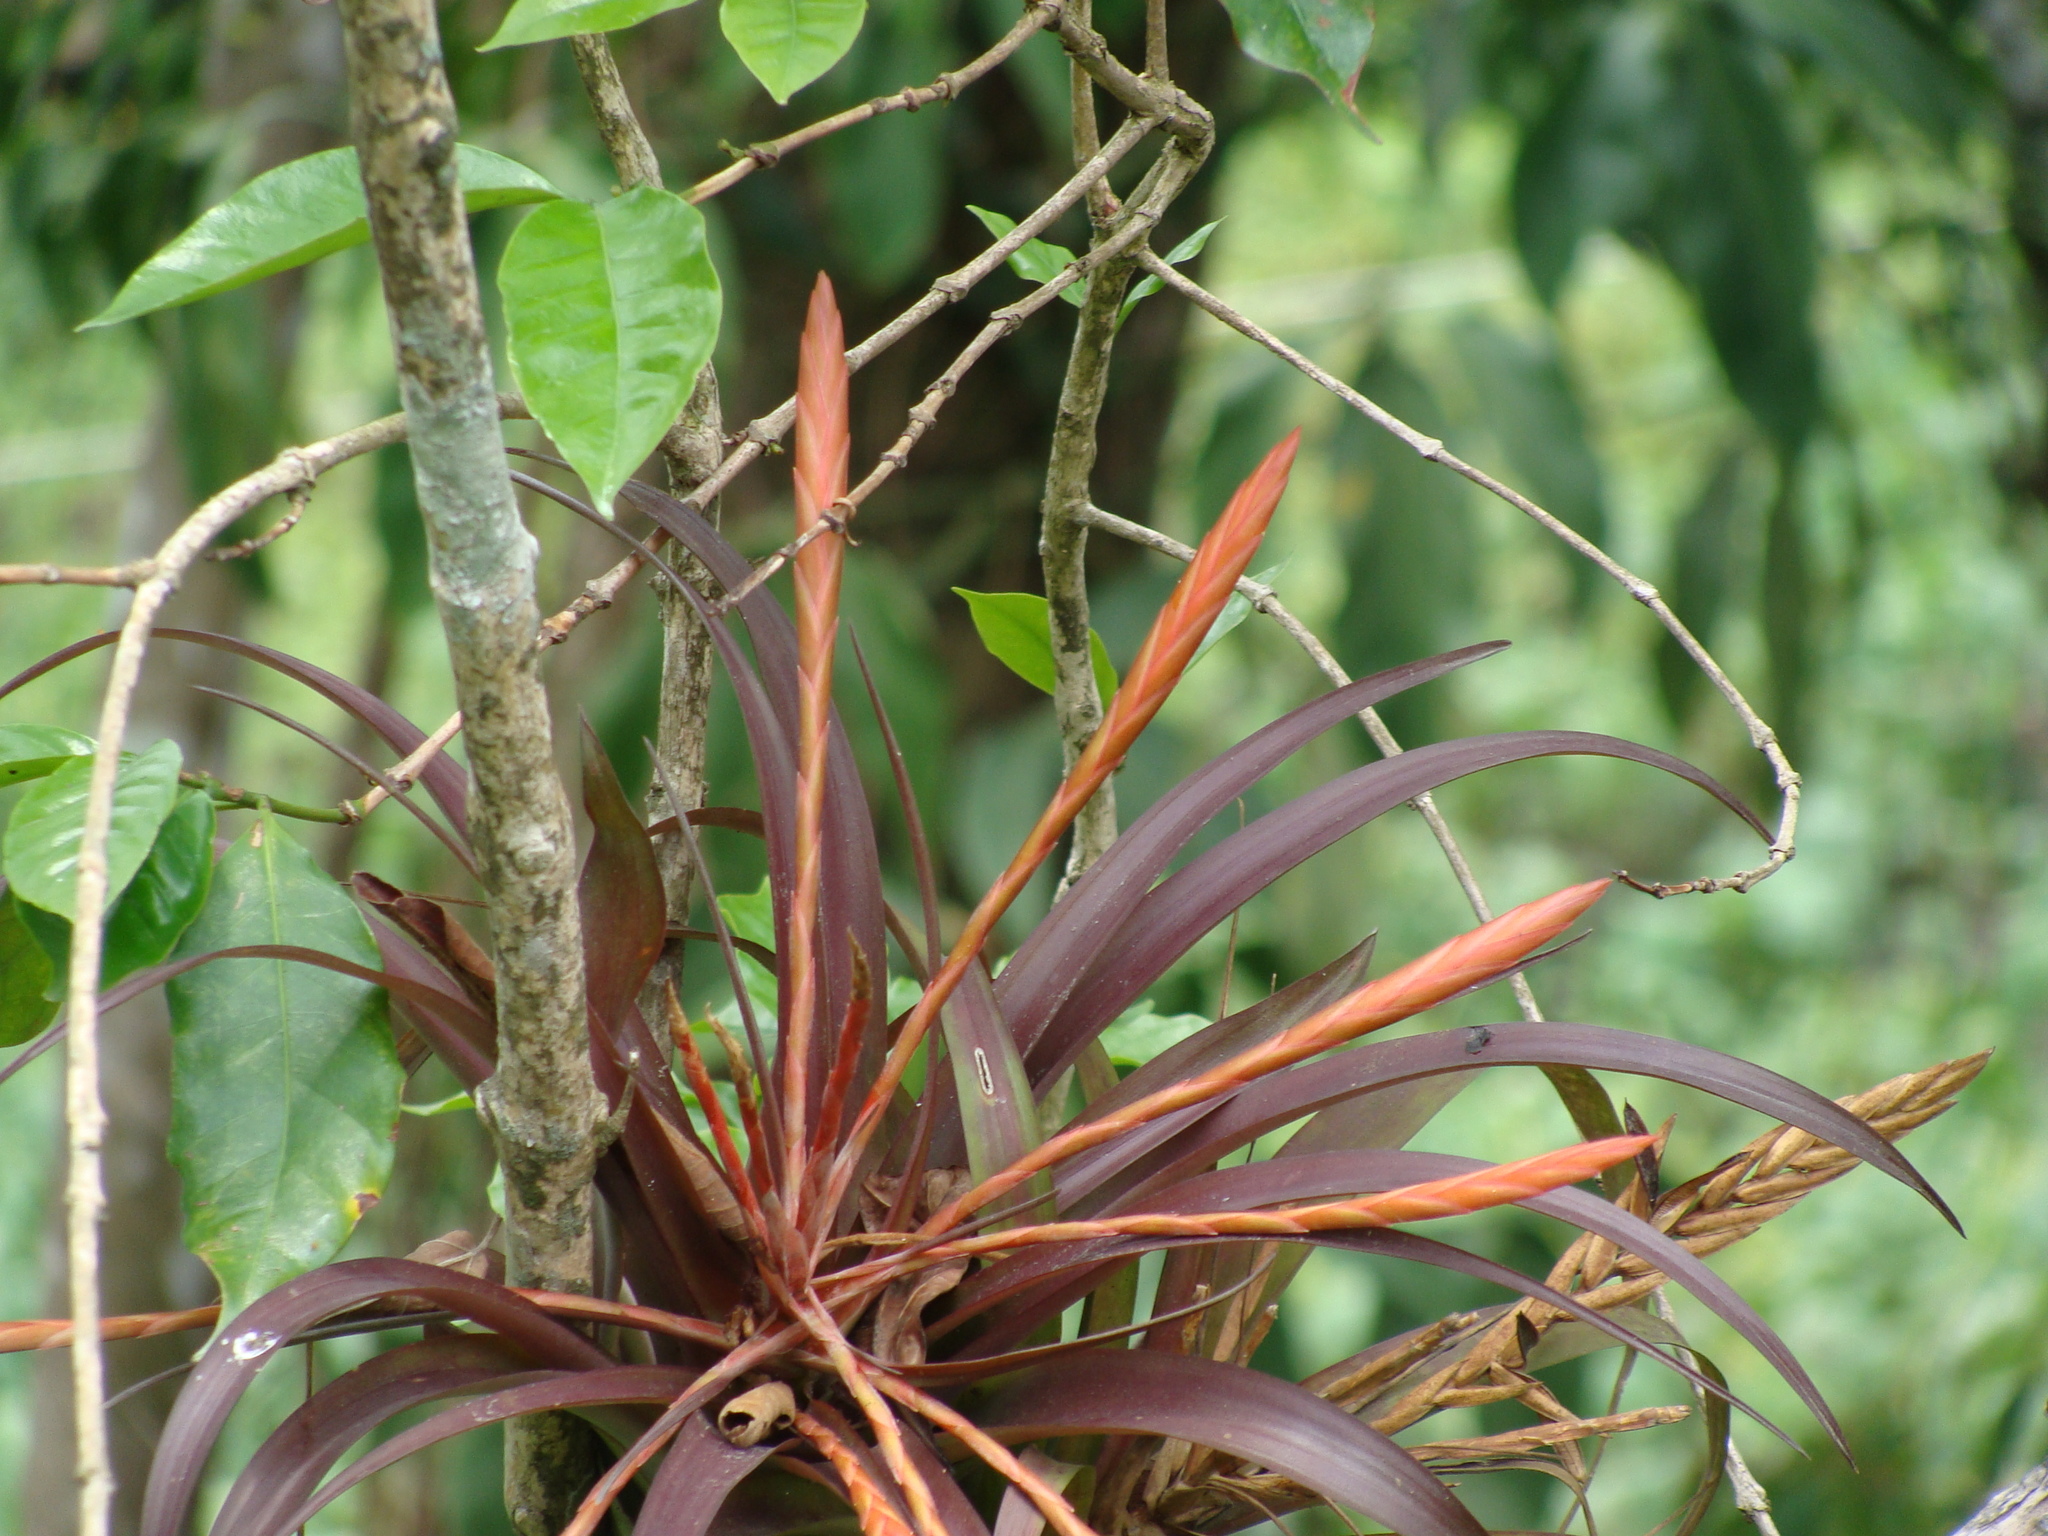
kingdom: Plantae
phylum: Tracheophyta
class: Liliopsida
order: Poales
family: Bromeliaceae
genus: Tillandsia
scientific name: Tillandsia flabellata
